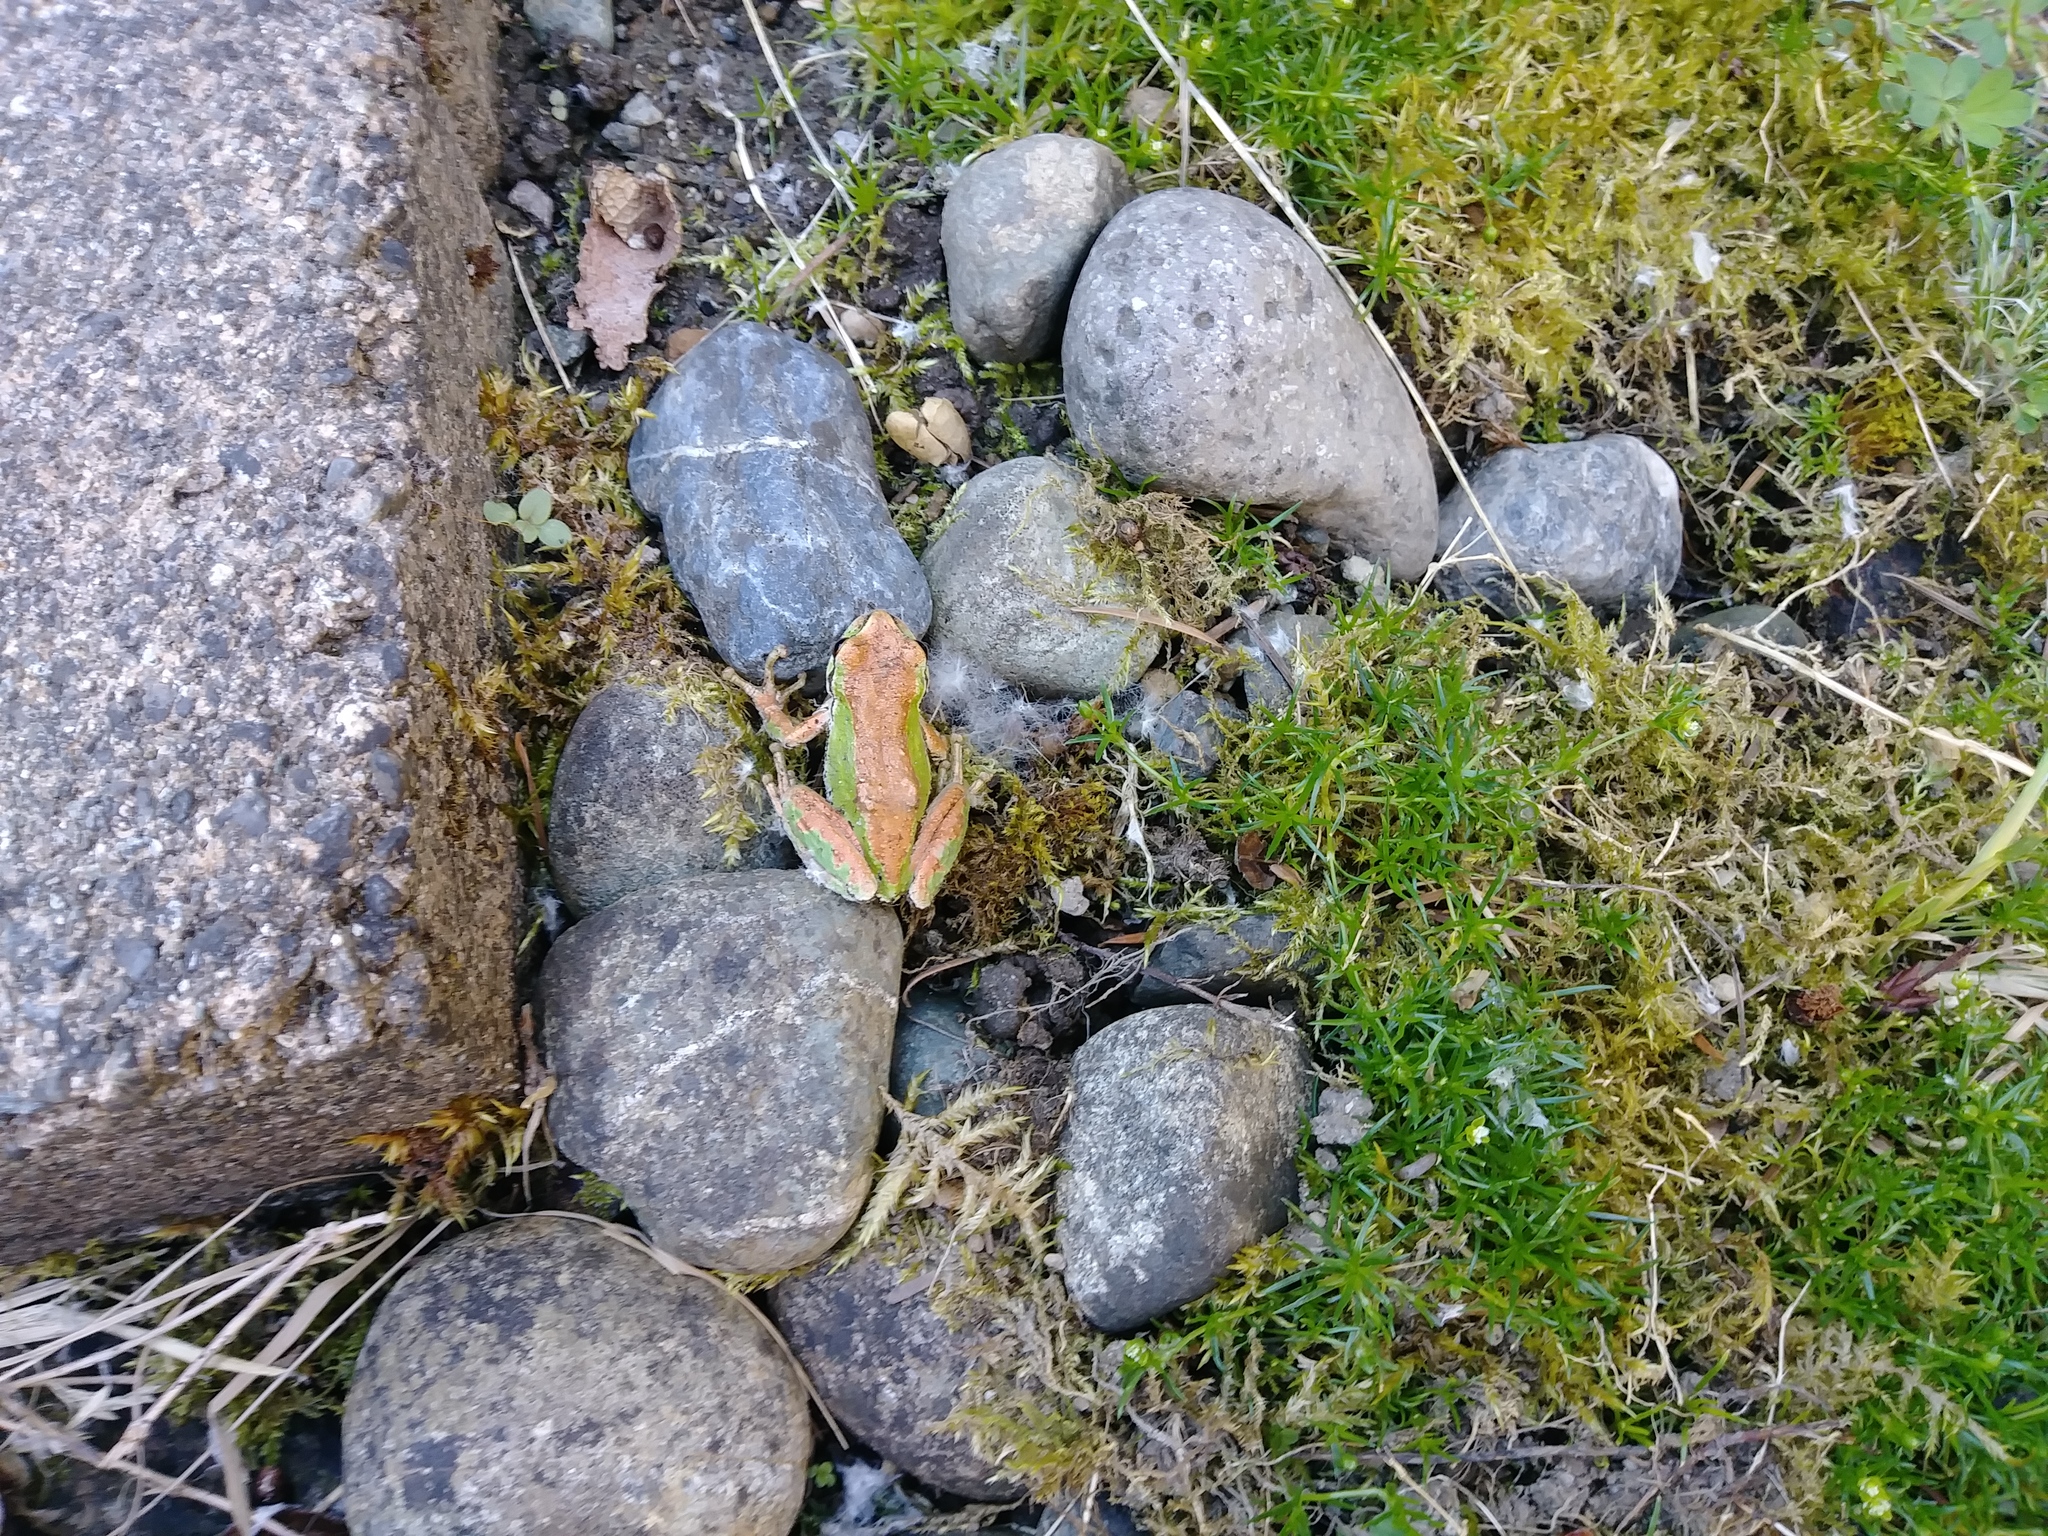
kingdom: Animalia
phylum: Chordata
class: Amphibia
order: Anura
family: Hylidae
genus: Pseudacris
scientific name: Pseudacris regilla
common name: Pacific chorus frog
